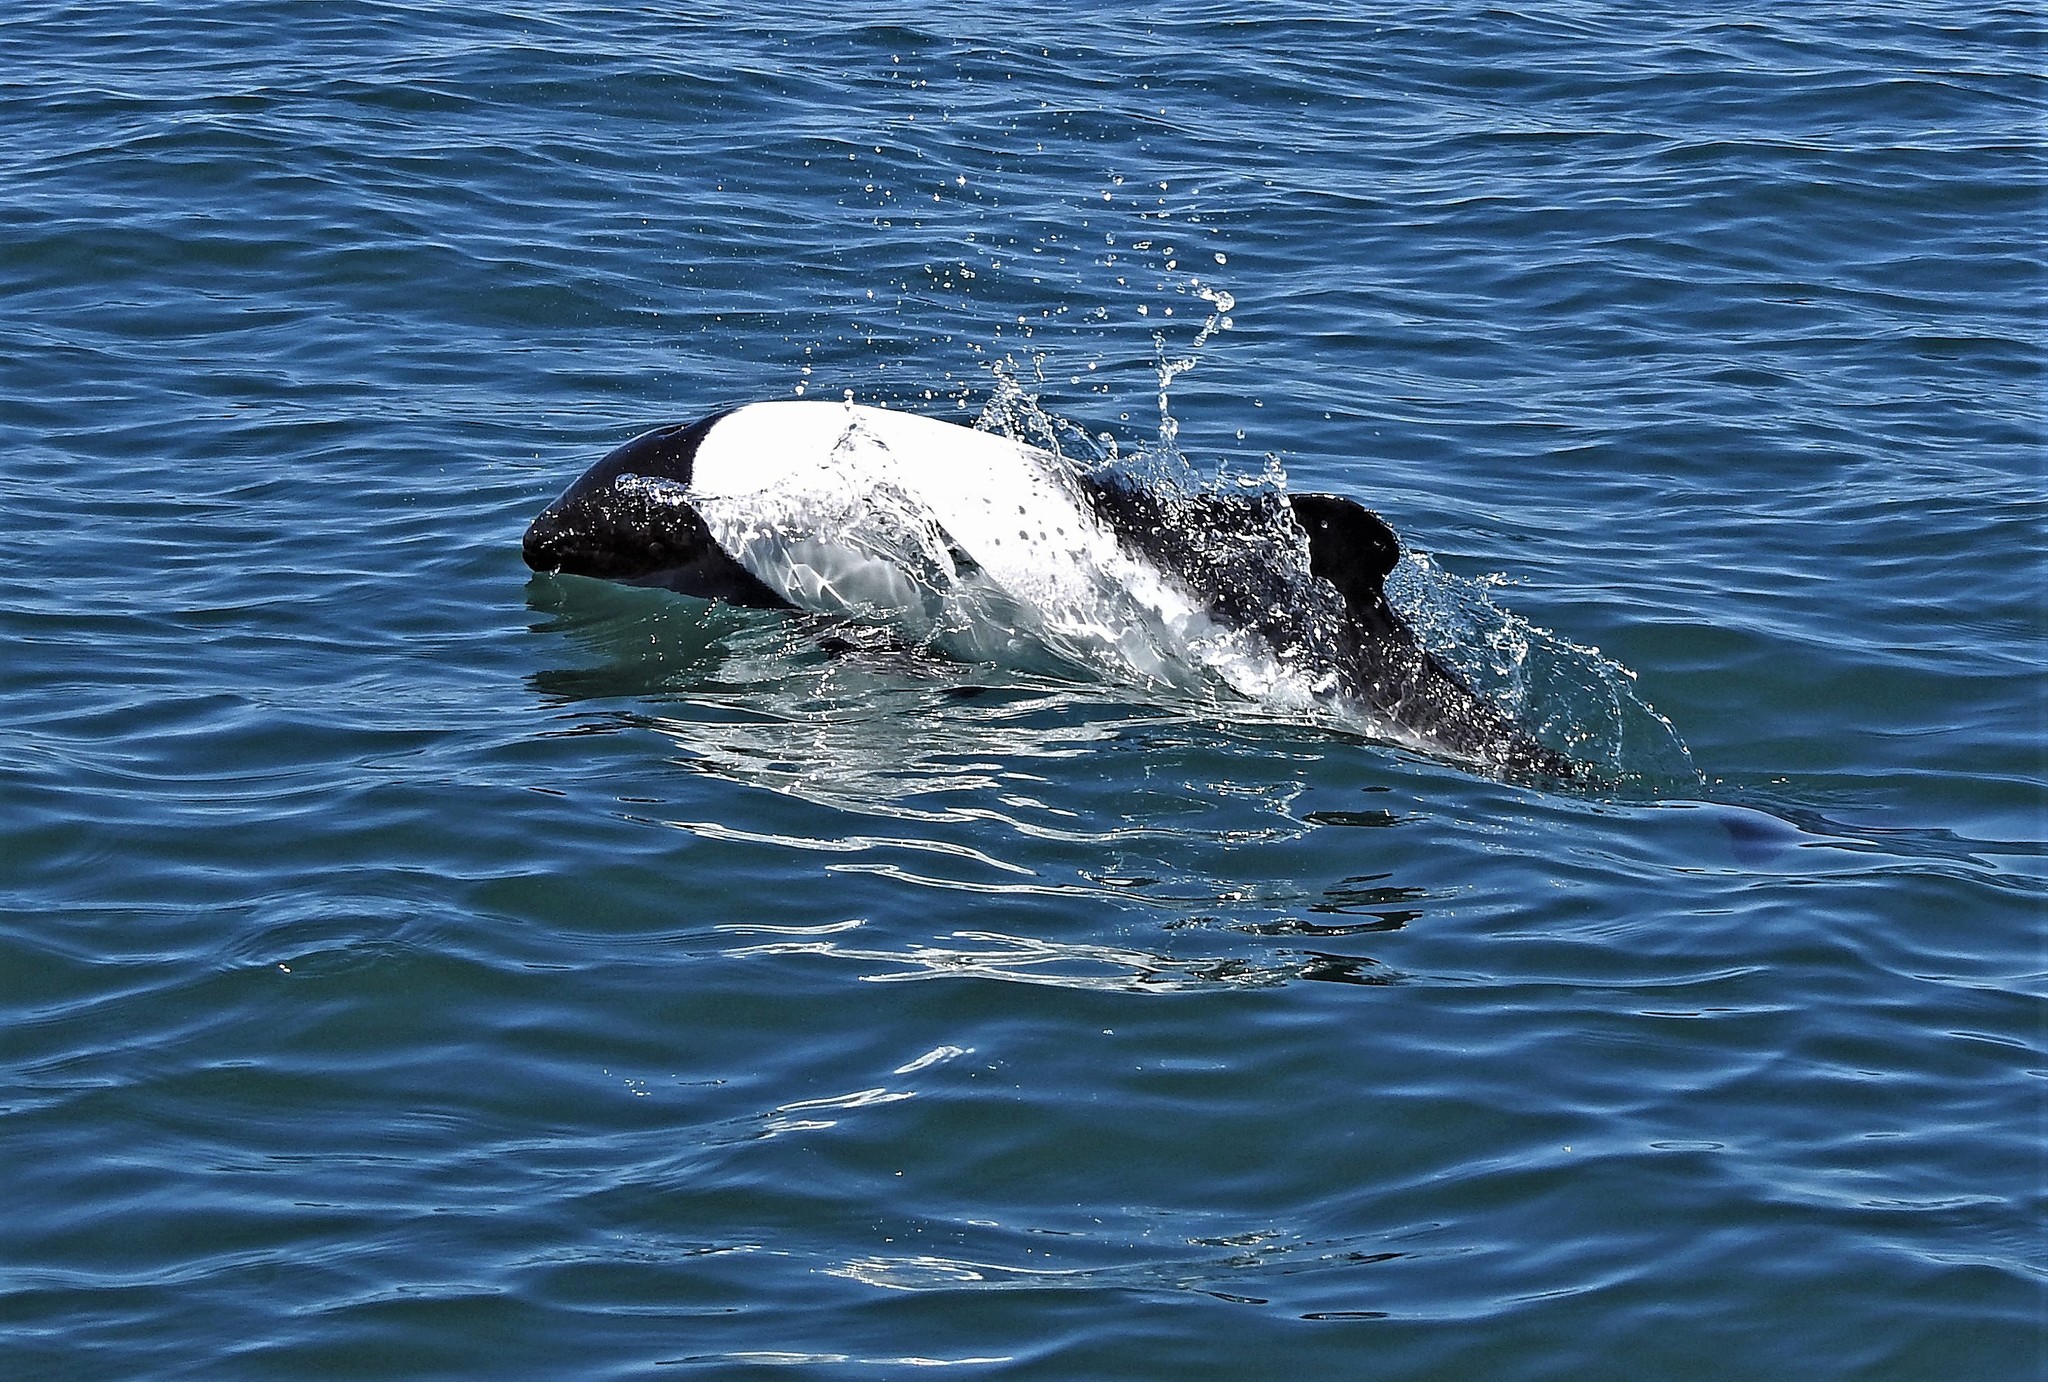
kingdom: Animalia
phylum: Chordata
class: Mammalia
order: Cetacea
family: Delphinidae
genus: Cephalorhynchus
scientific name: Cephalorhynchus commersonii
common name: Commerson's dolphin
